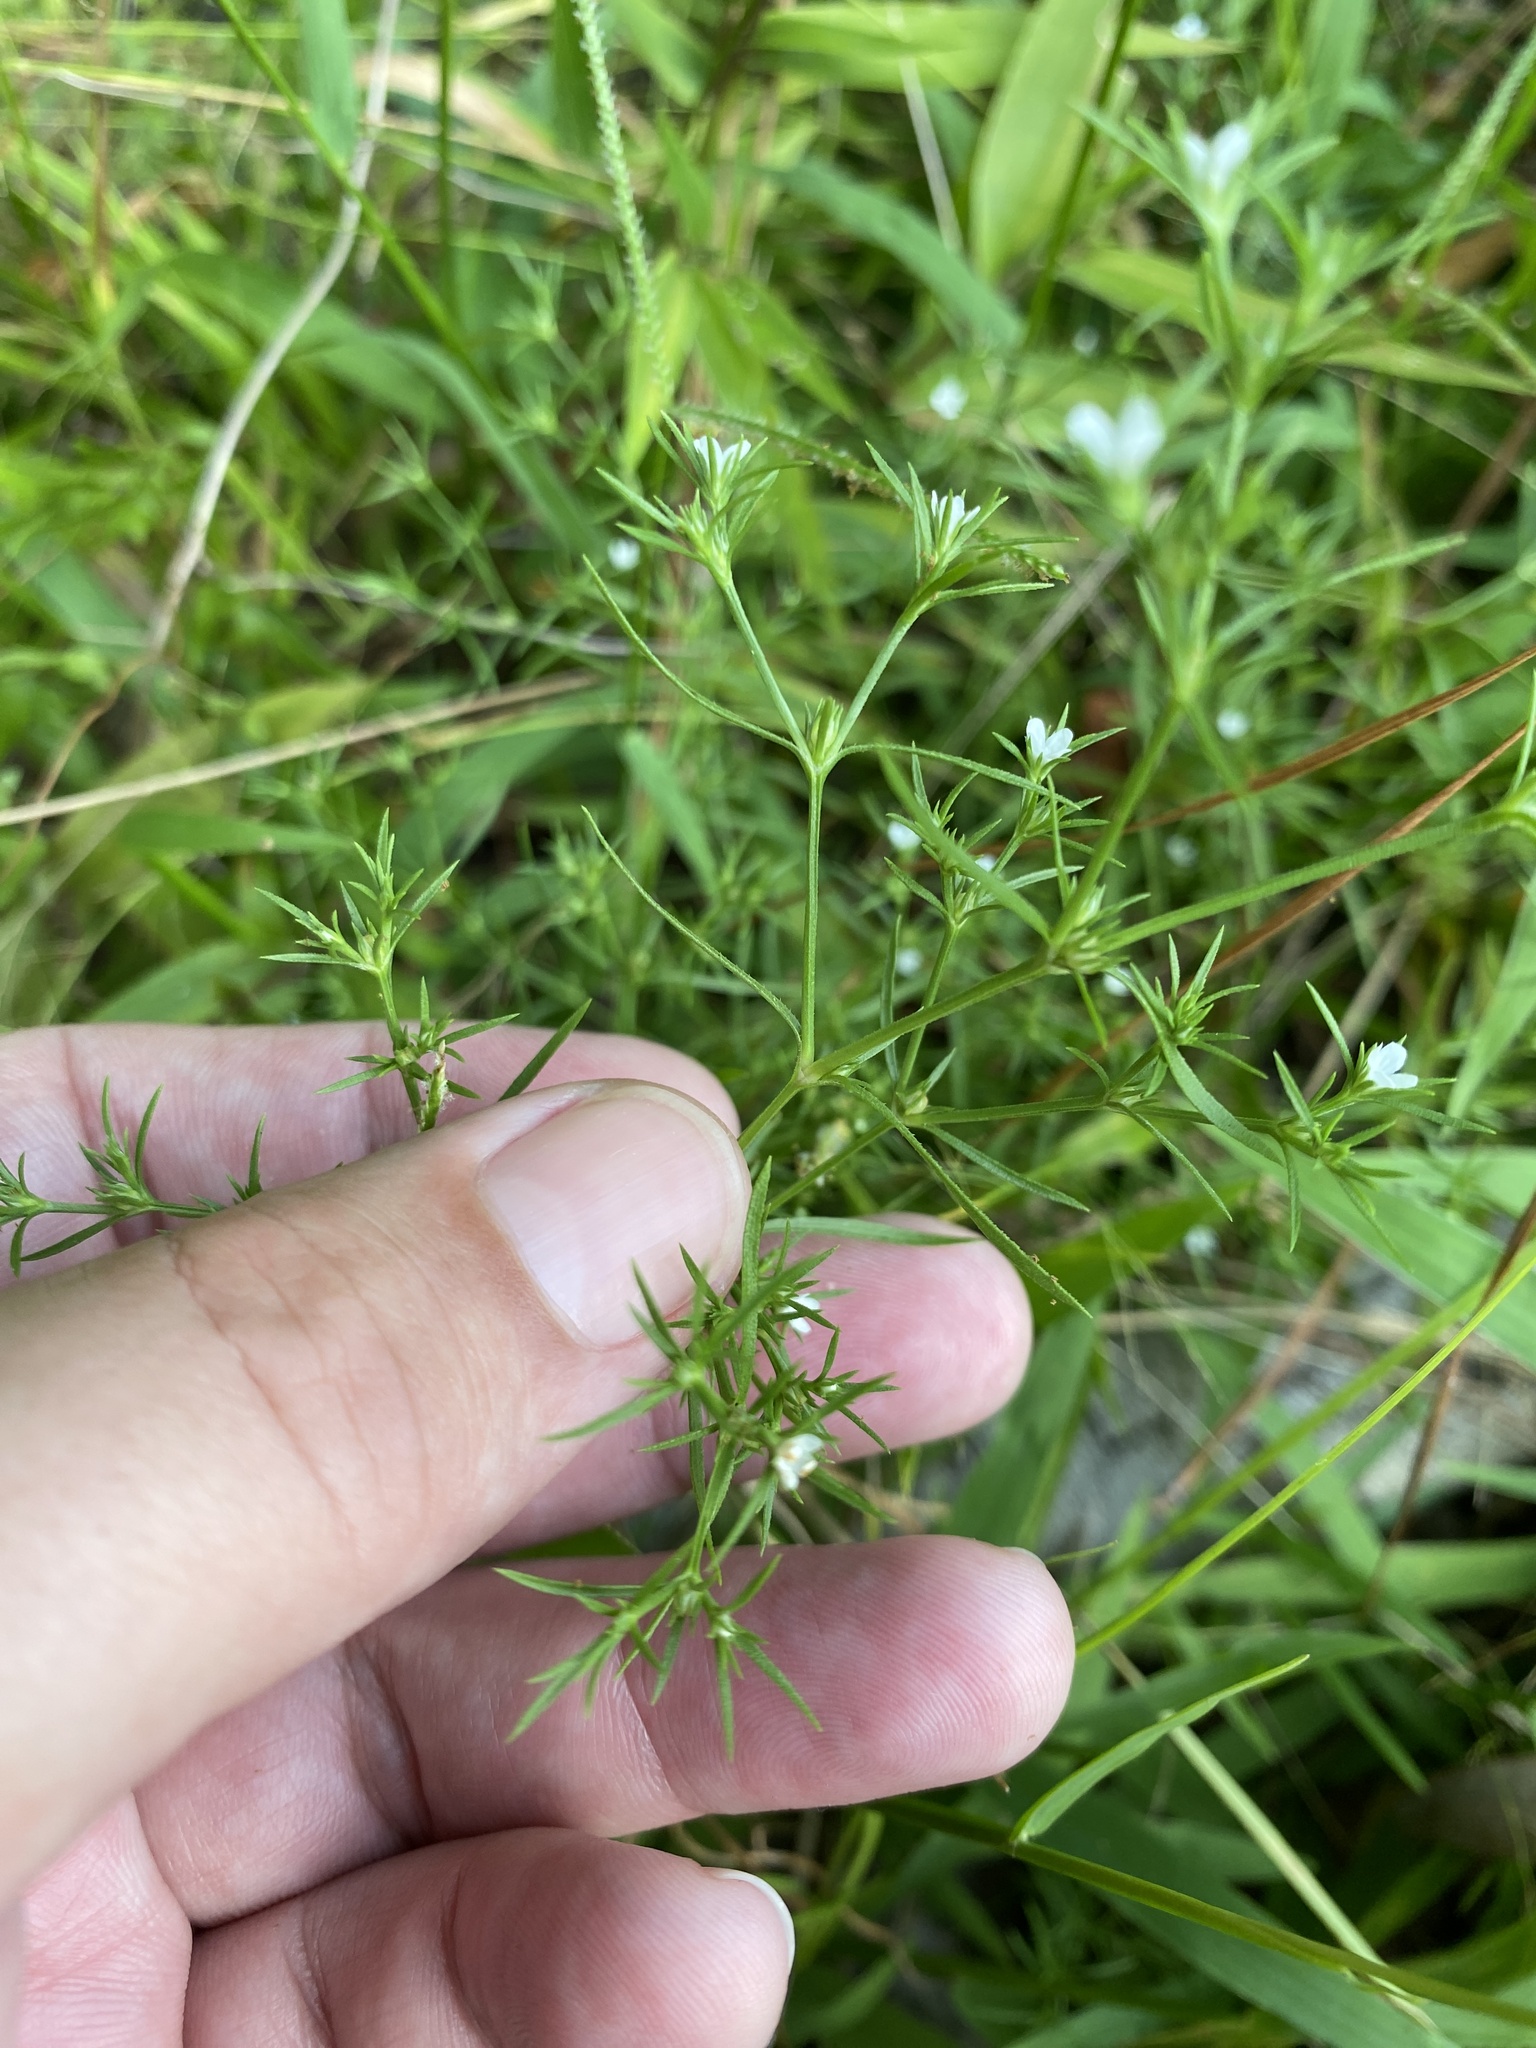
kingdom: Plantae
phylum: Tracheophyta
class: Magnoliopsida
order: Lamiales
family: Tetrachondraceae
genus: Polypremum
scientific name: Polypremum procumbens
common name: Juniper-leaf
